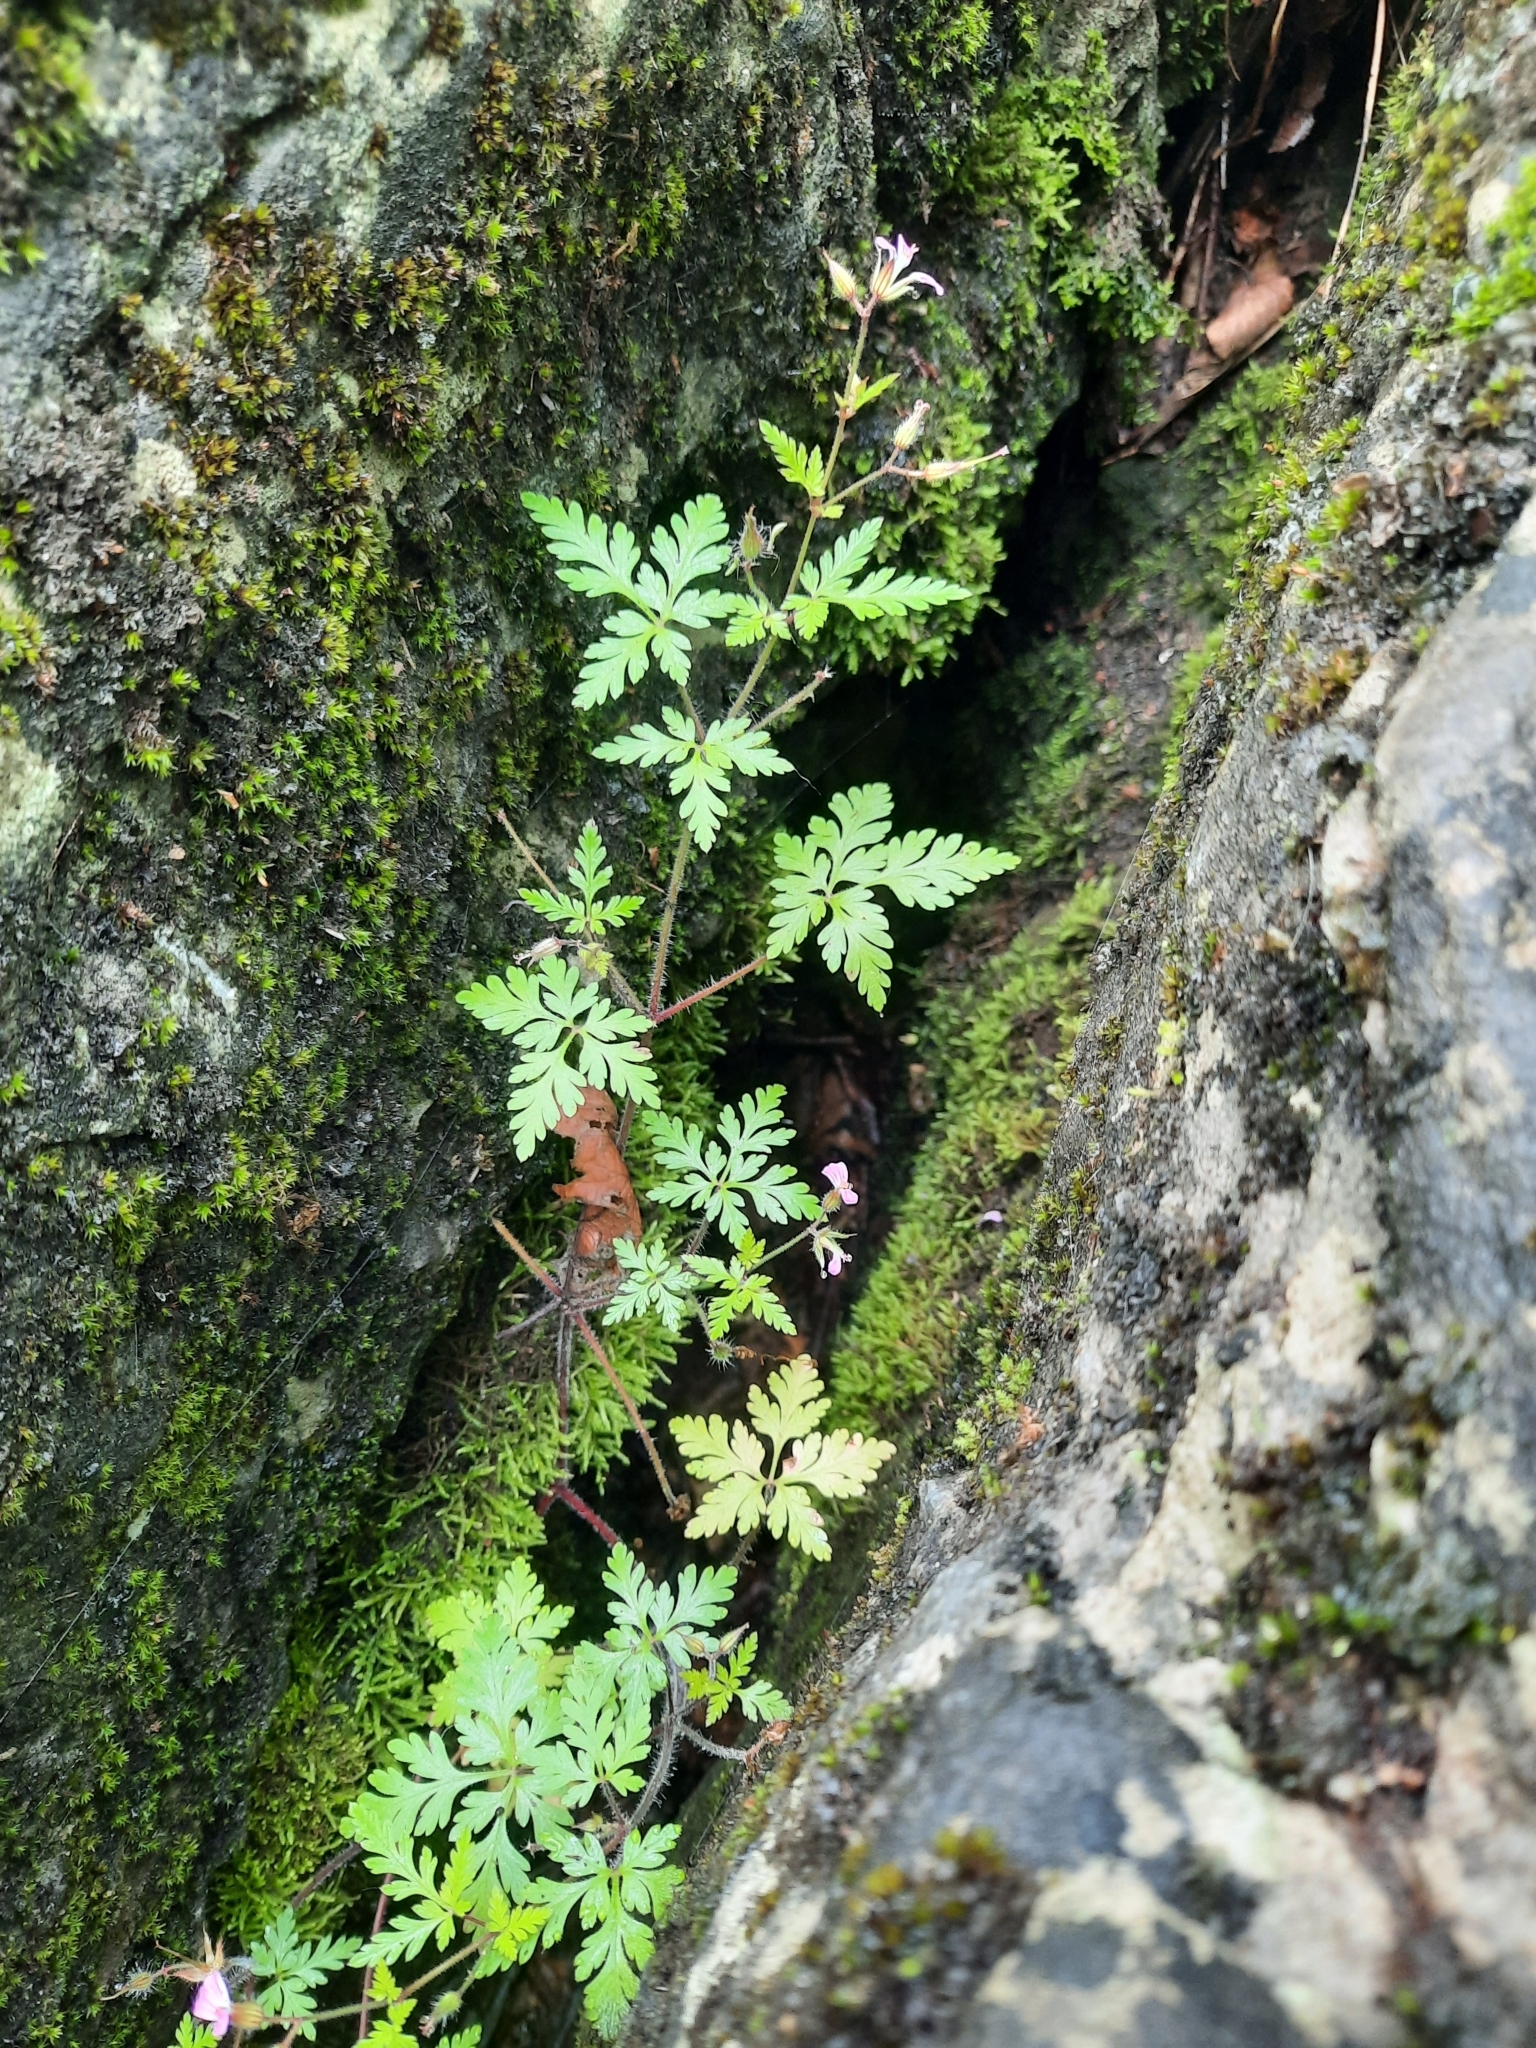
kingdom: Plantae
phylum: Tracheophyta
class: Magnoliopsida
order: Geraniales
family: Geraniaceae
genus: Geranium
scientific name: Geranium robertianum
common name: Herb-robert
